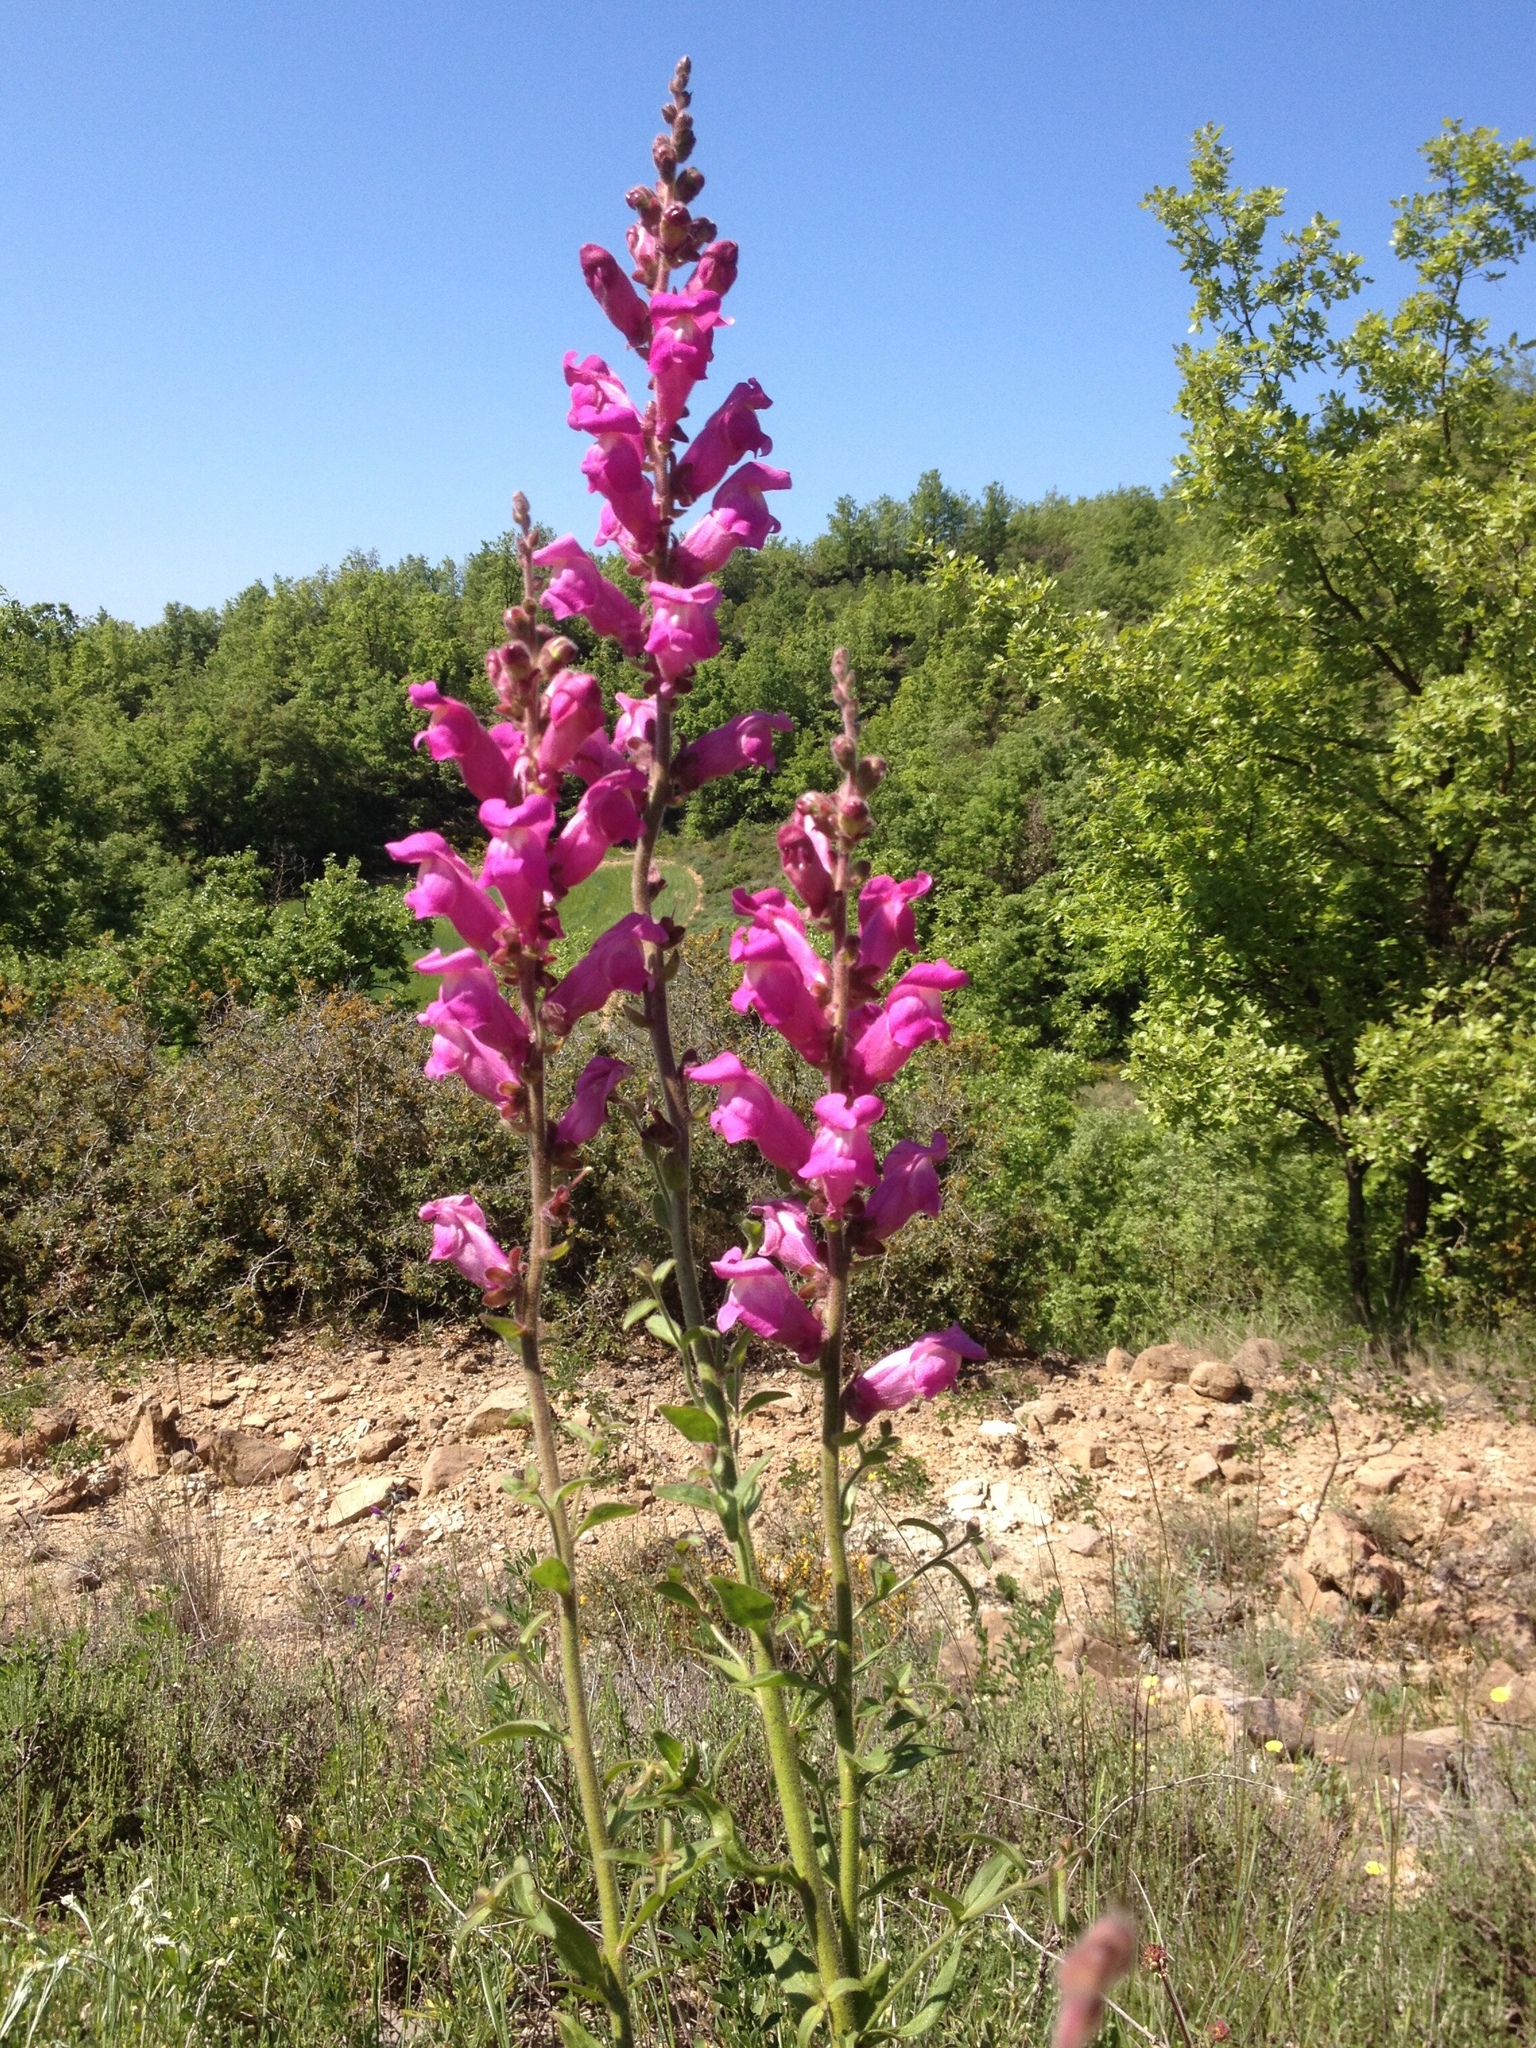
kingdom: Plantae
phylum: Tracheophyta
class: Magnoliopsida
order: Lamiales
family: Plantaginaceae
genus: Antirrhinum
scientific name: Antirrhinum majus
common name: Snapdragon
